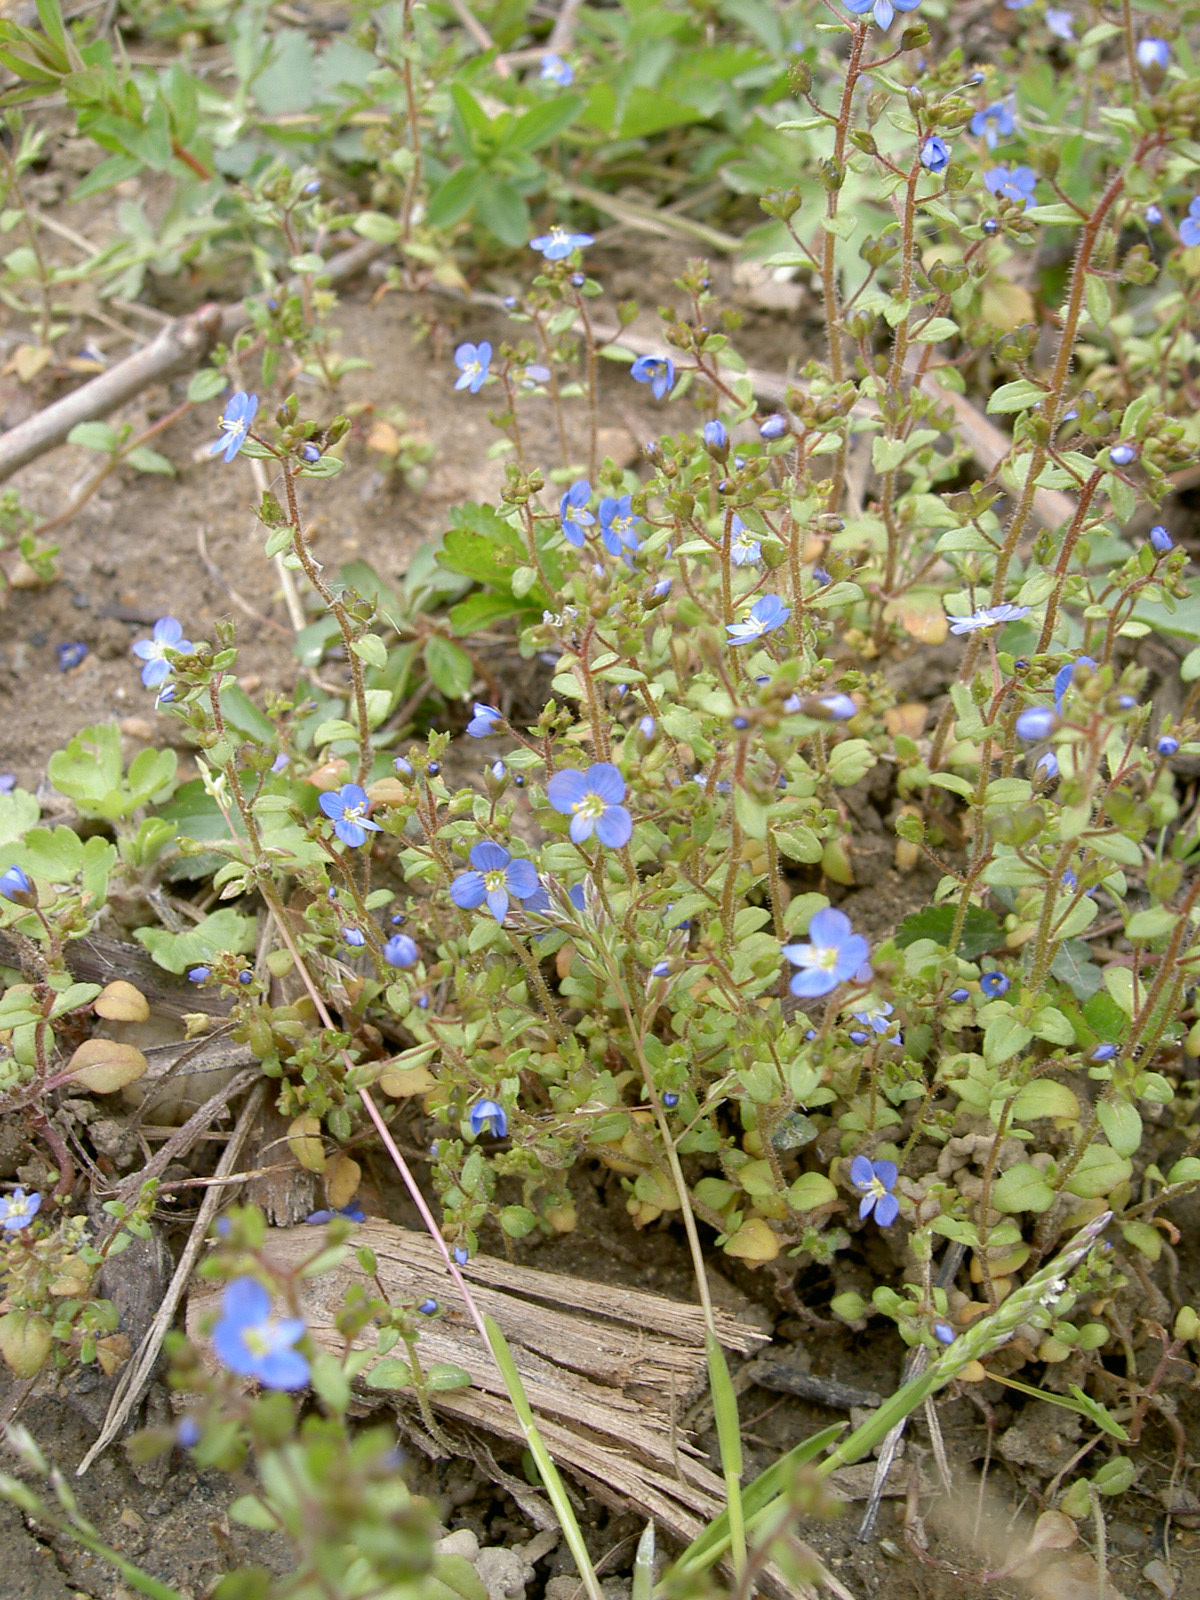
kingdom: Plantae
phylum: Tracheophyta
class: Magnoliopsida
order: Lamiales
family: Plantaginaceae
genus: Veronica
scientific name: Veronica acinifolia
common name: French speedwell
